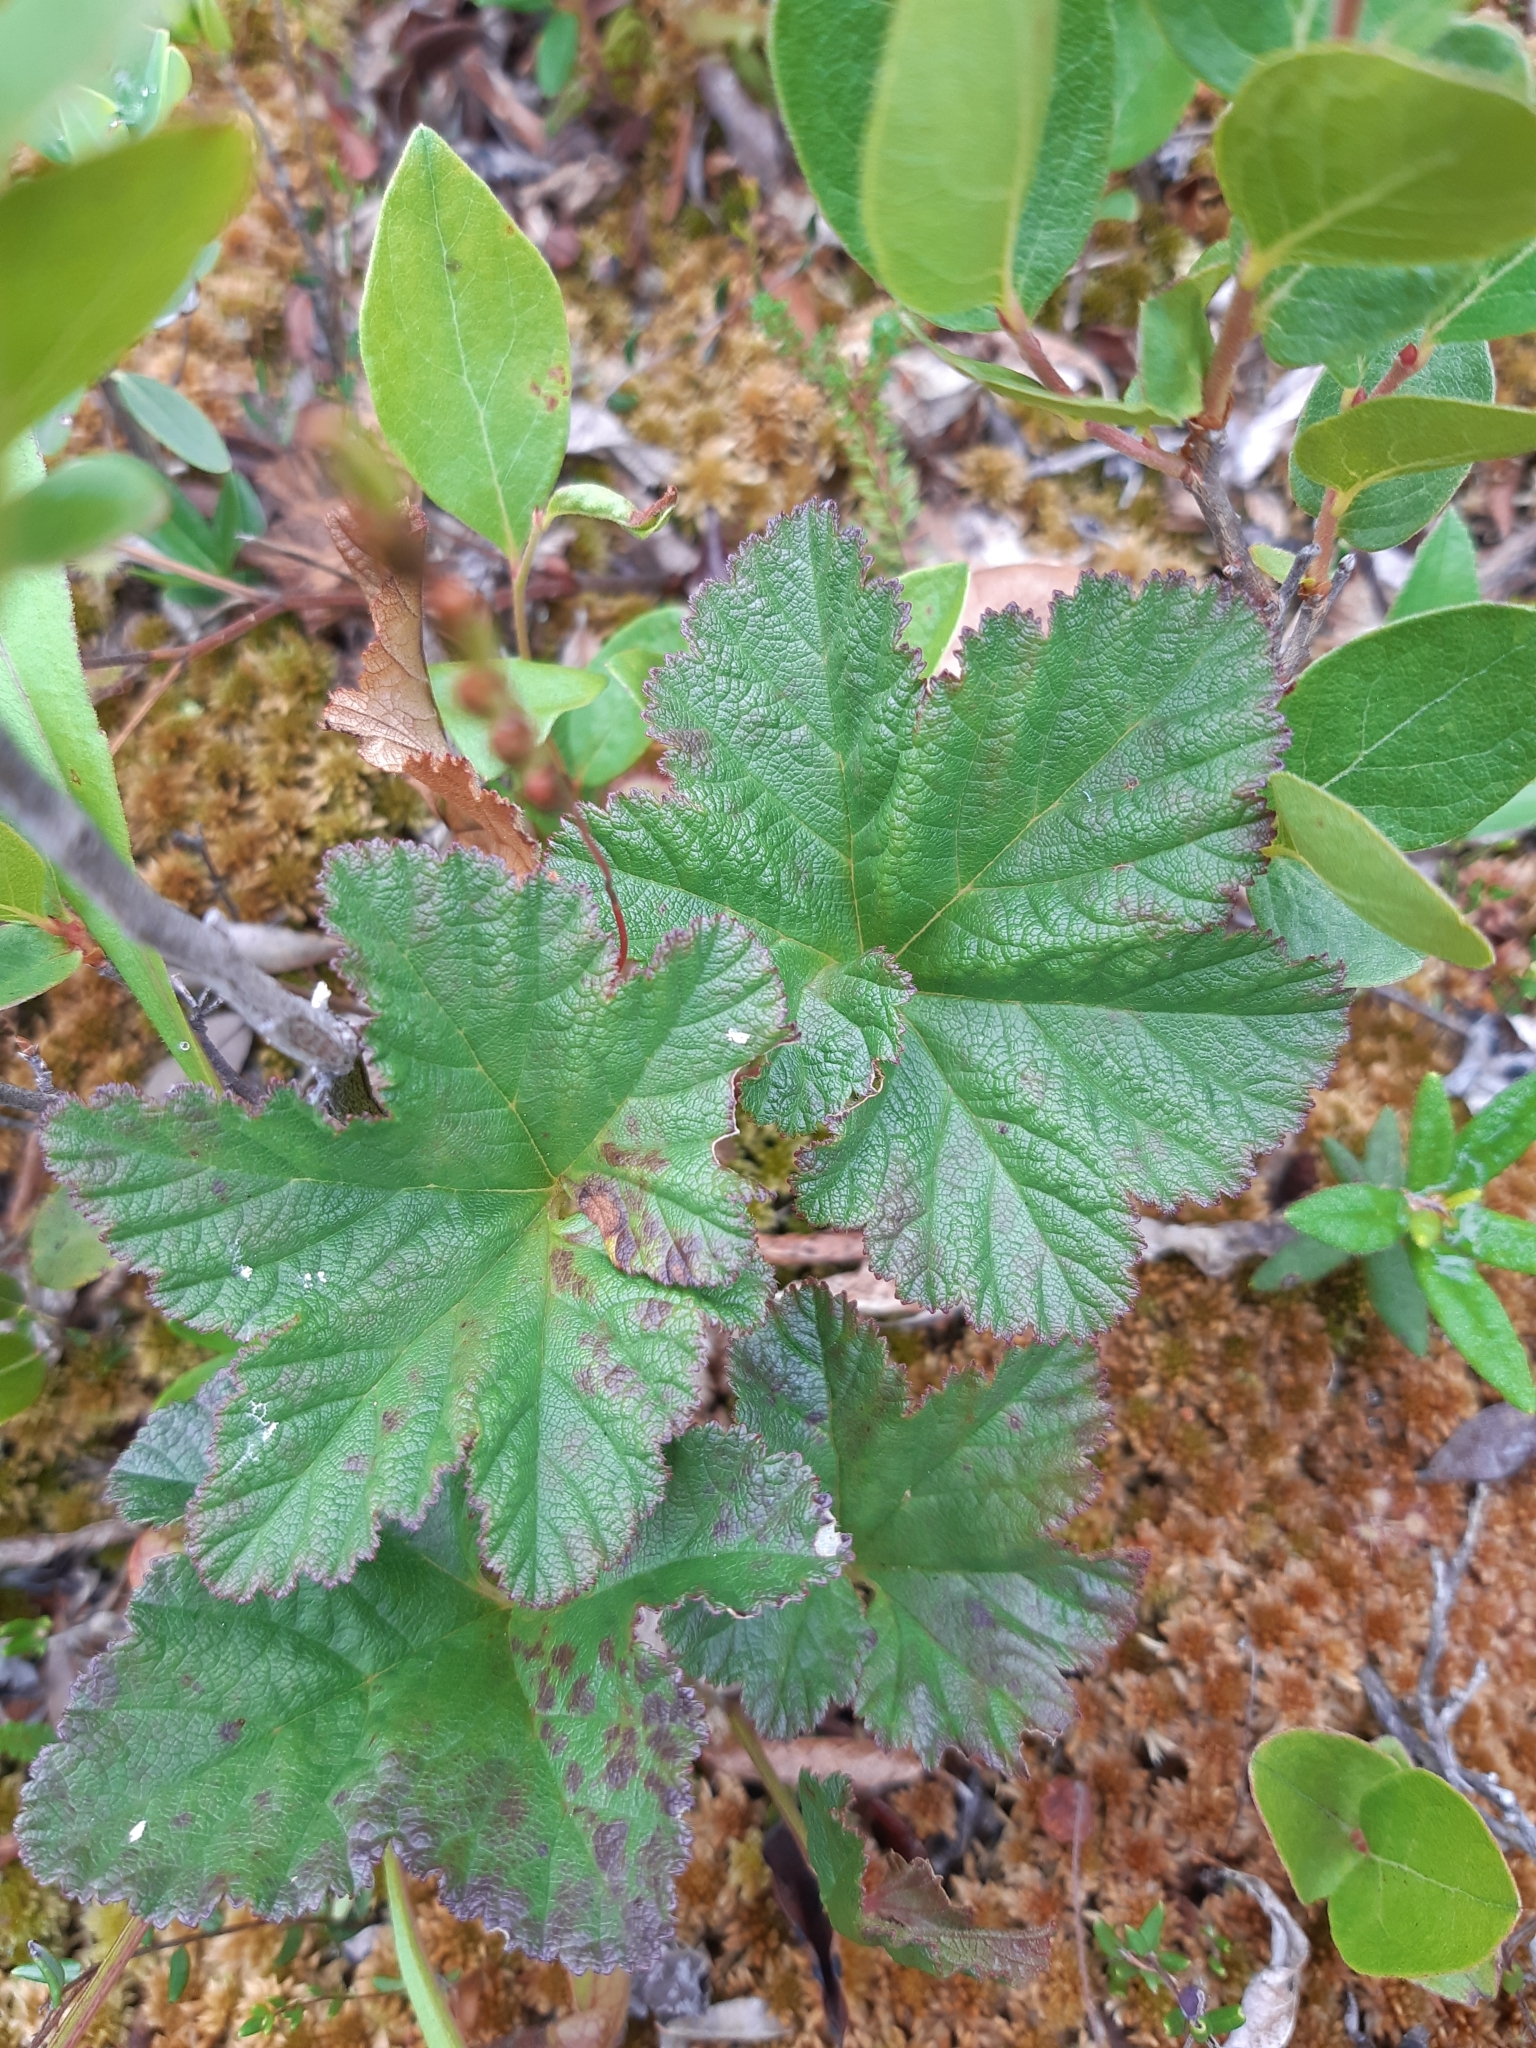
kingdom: Plantae
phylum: Tracheophyta
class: Magnoliopsida
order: Rosales
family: Rosaceae
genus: Rubus
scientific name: Rubus chamaemorus
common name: Cloudberry
